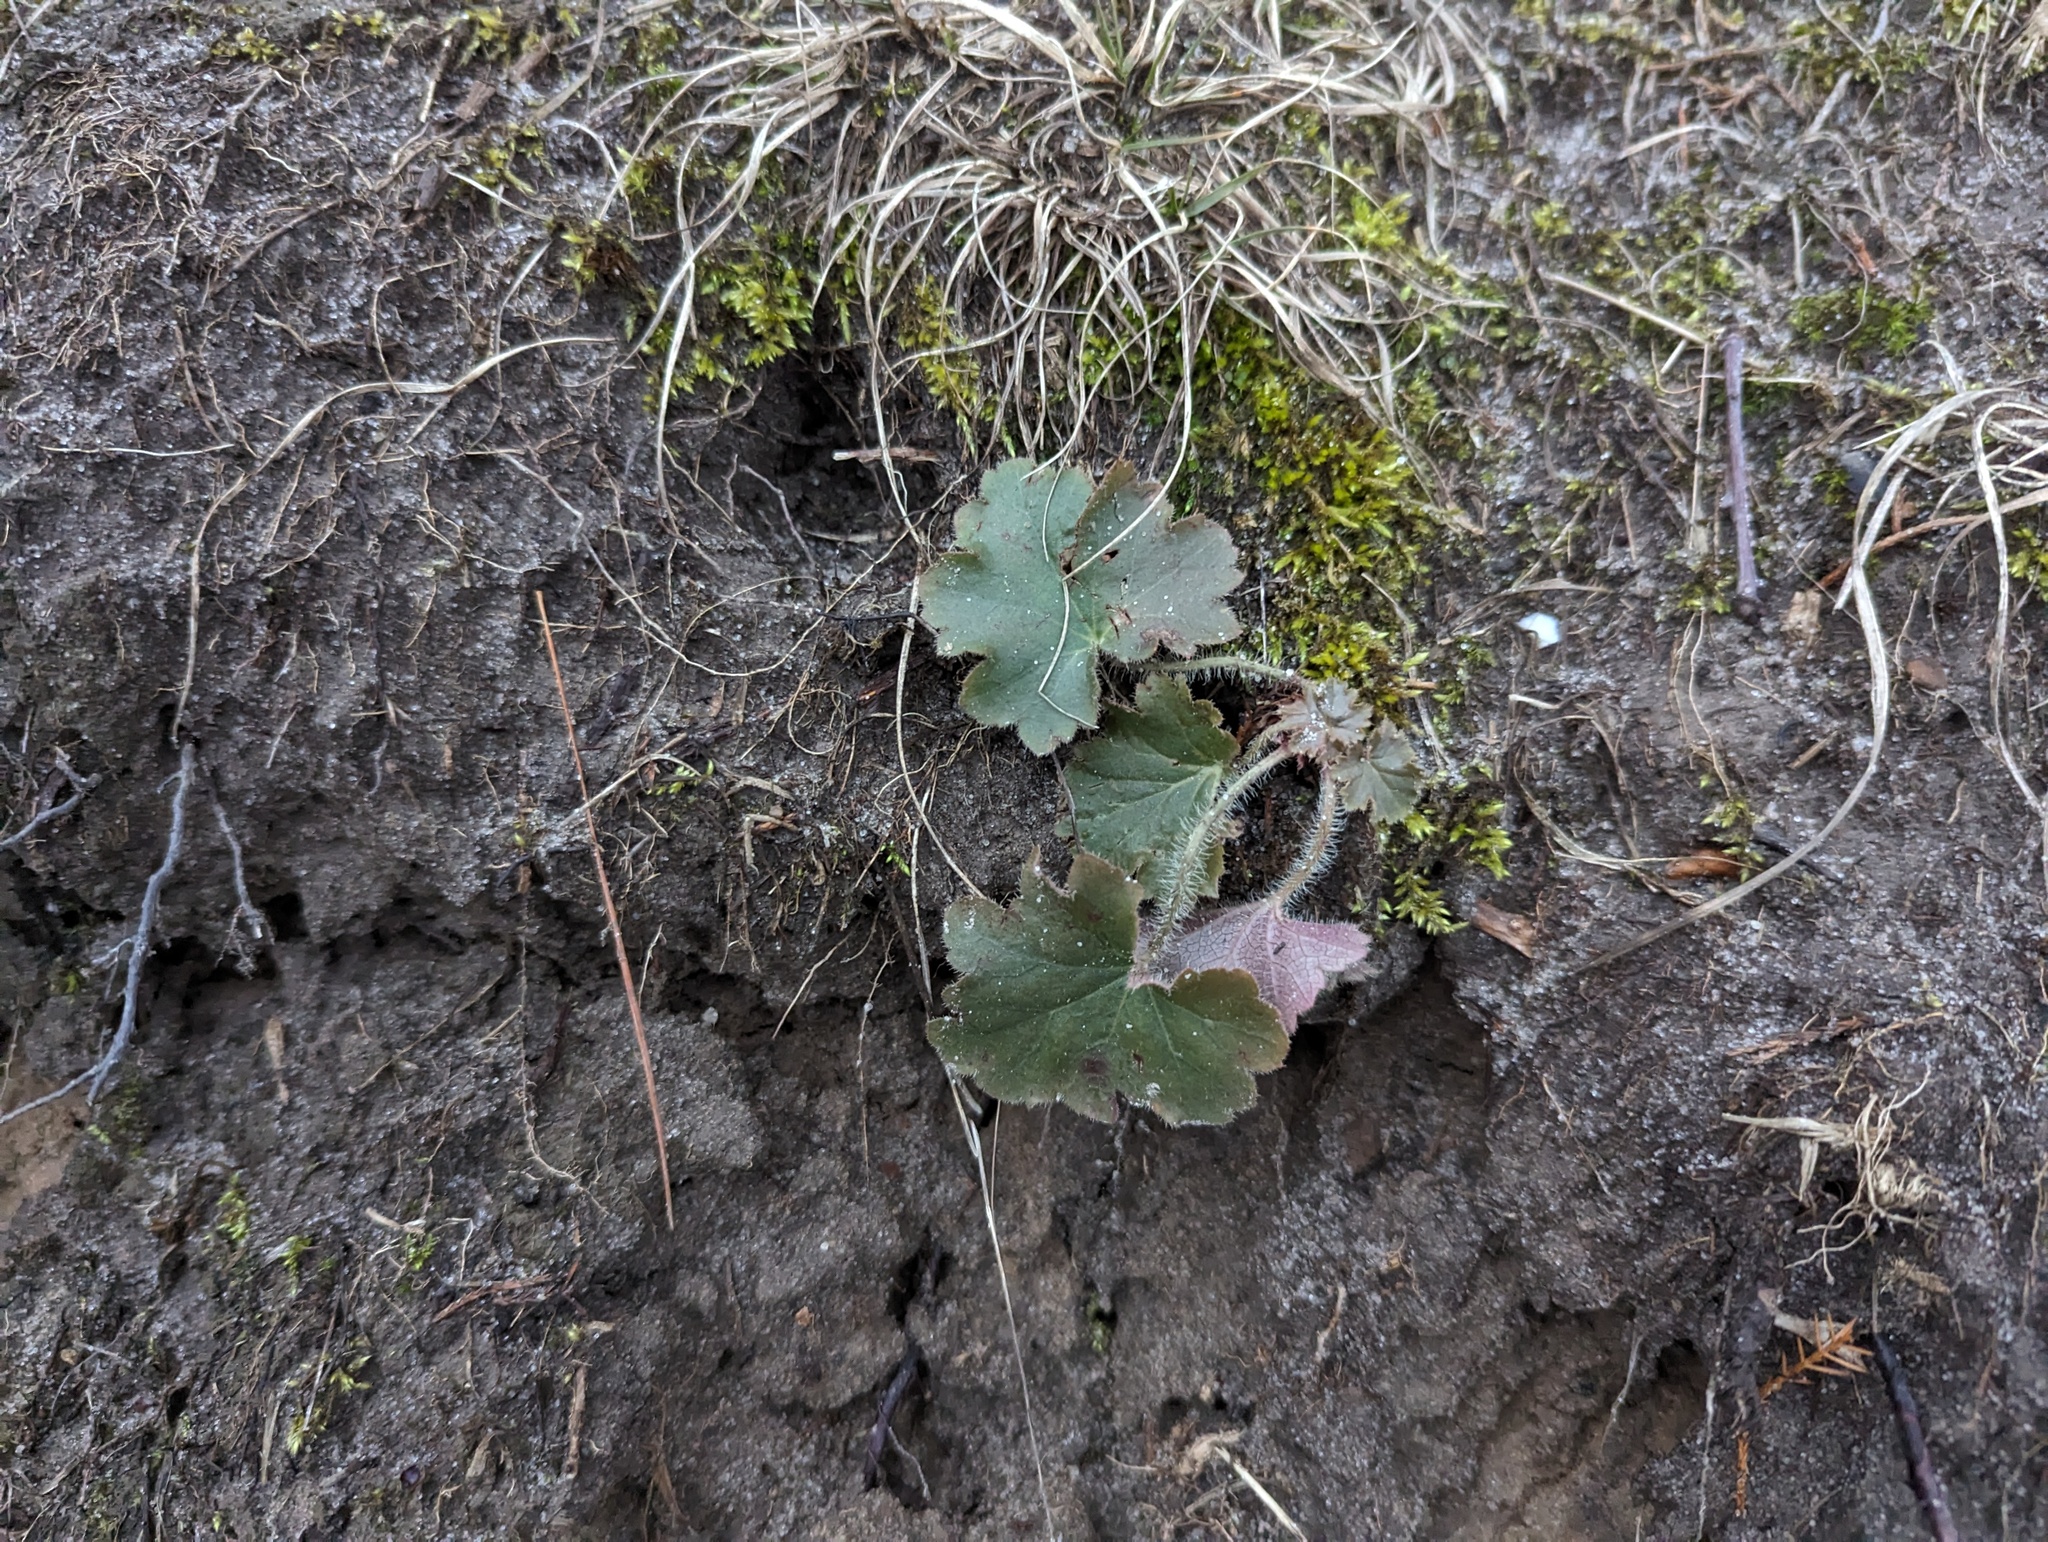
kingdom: Plantae
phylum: Tracheophyta
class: Magnoliopsida
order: Saxifragales
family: Saxifragaceae
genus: Heuchera
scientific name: Heuchera richardsonii
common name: Richardson's alumroot
